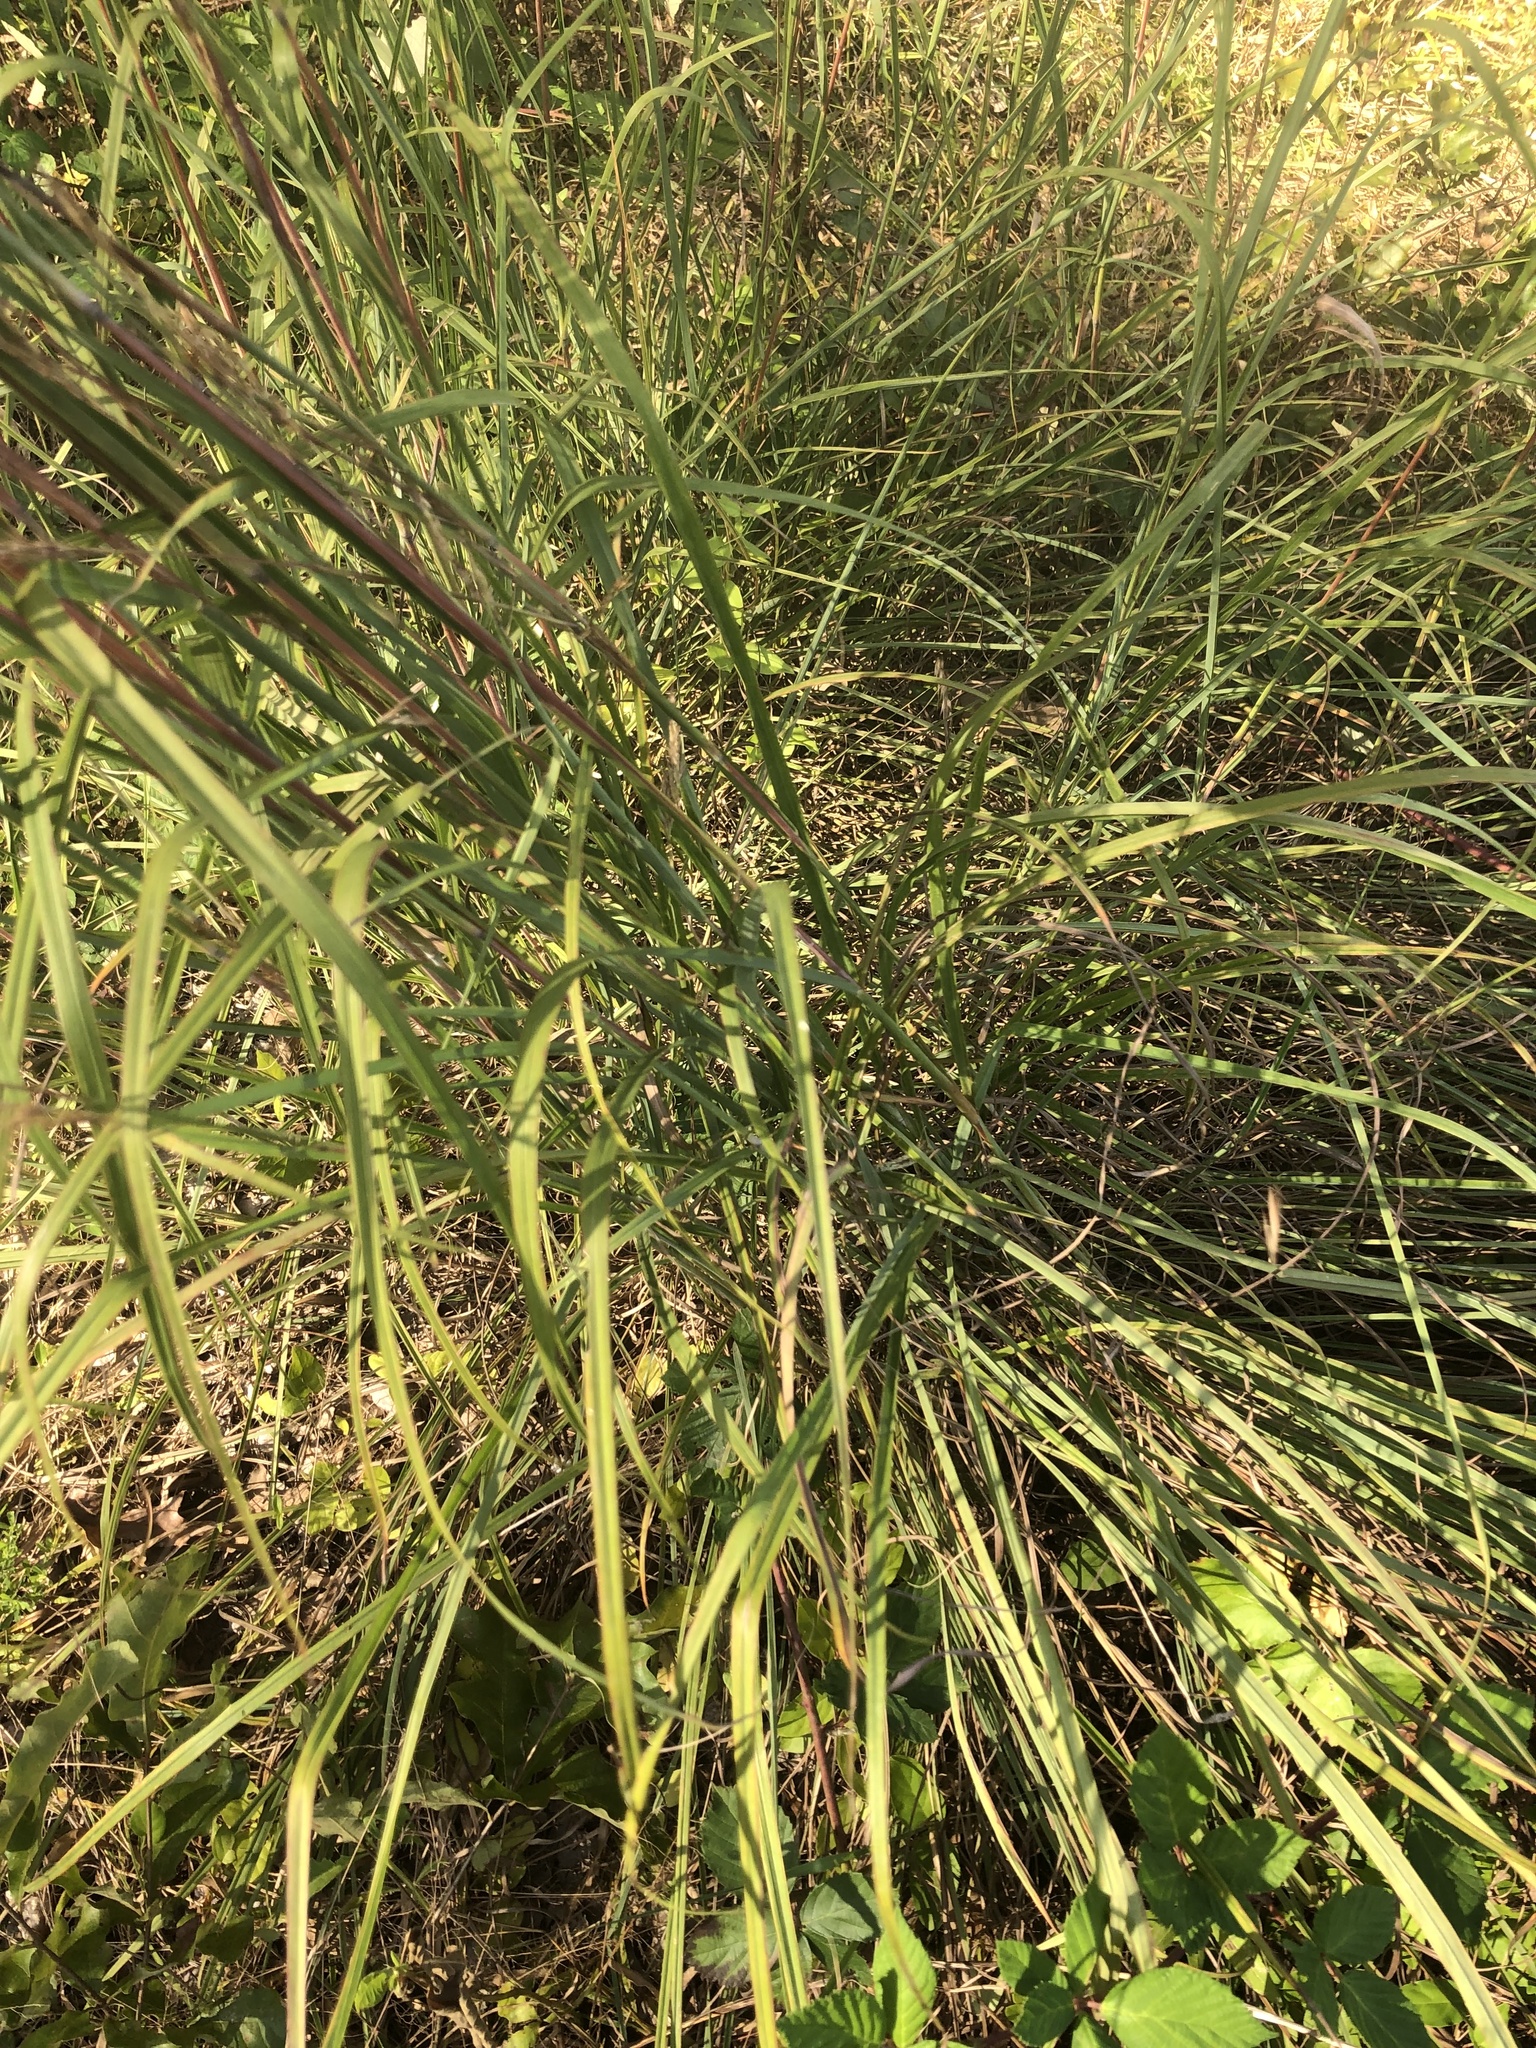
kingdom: Plantae
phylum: Tracheophyta
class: Liliopsida
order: Poales
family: Poaceae
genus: Andropogon
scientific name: Andropogon gerardi
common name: Big bluestem
